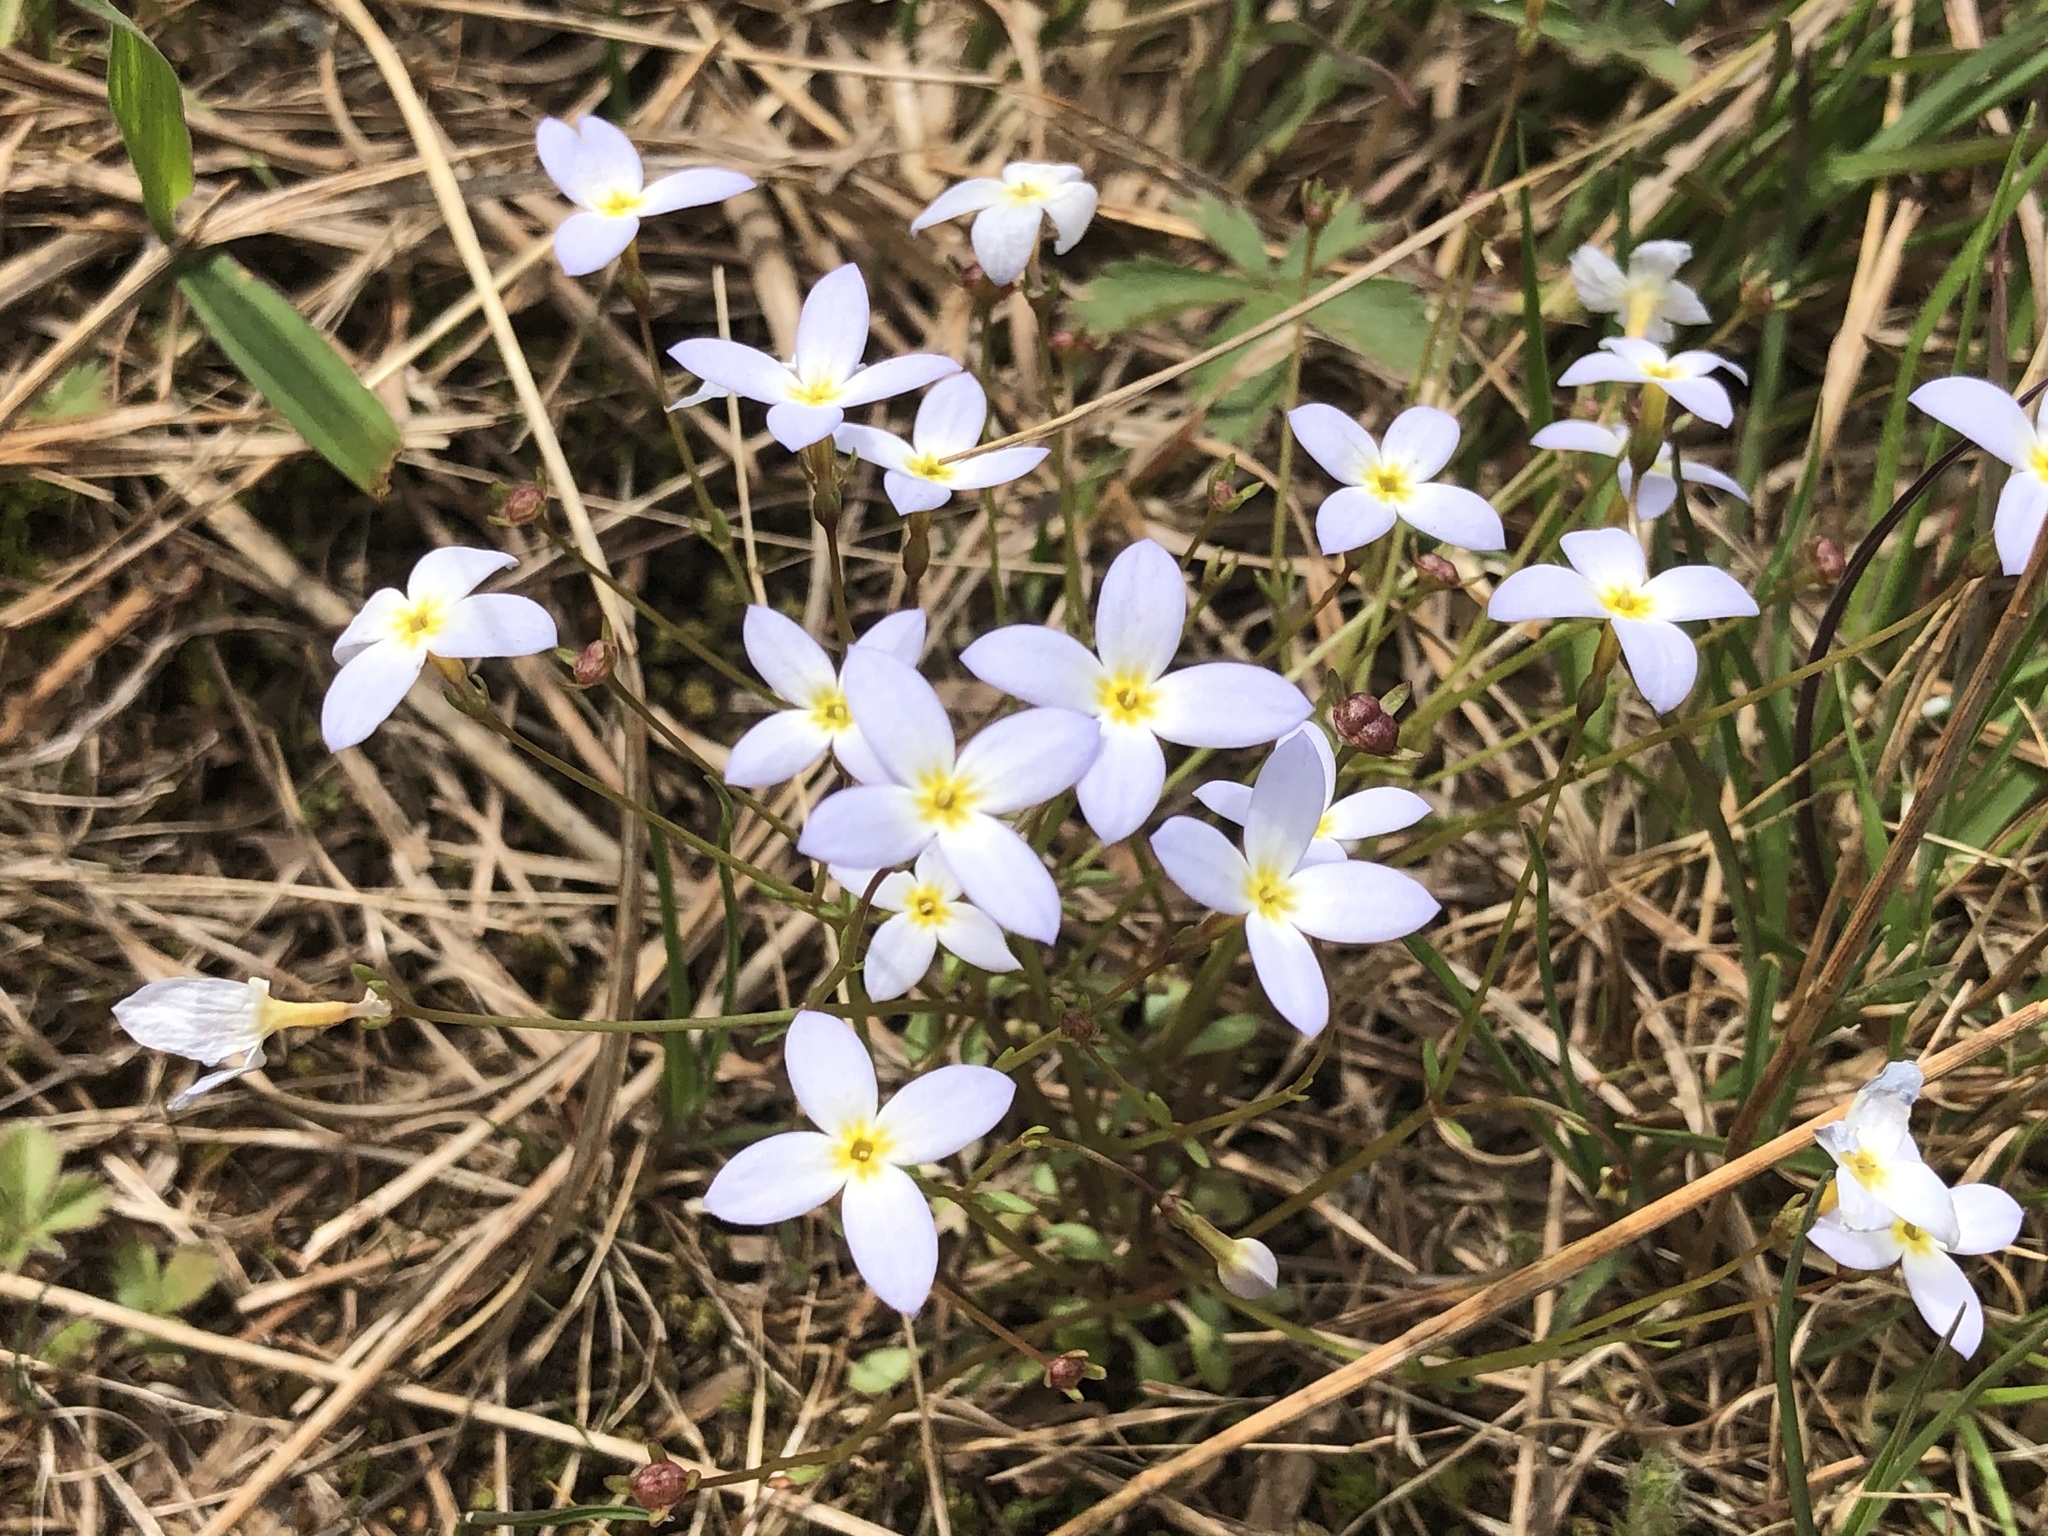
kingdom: Plantae
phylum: Tracheophyta
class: Magnoliopsida
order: Gentianales
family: Rubiaceae
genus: Houstonia
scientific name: Houstonia caerulea
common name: Bluets
